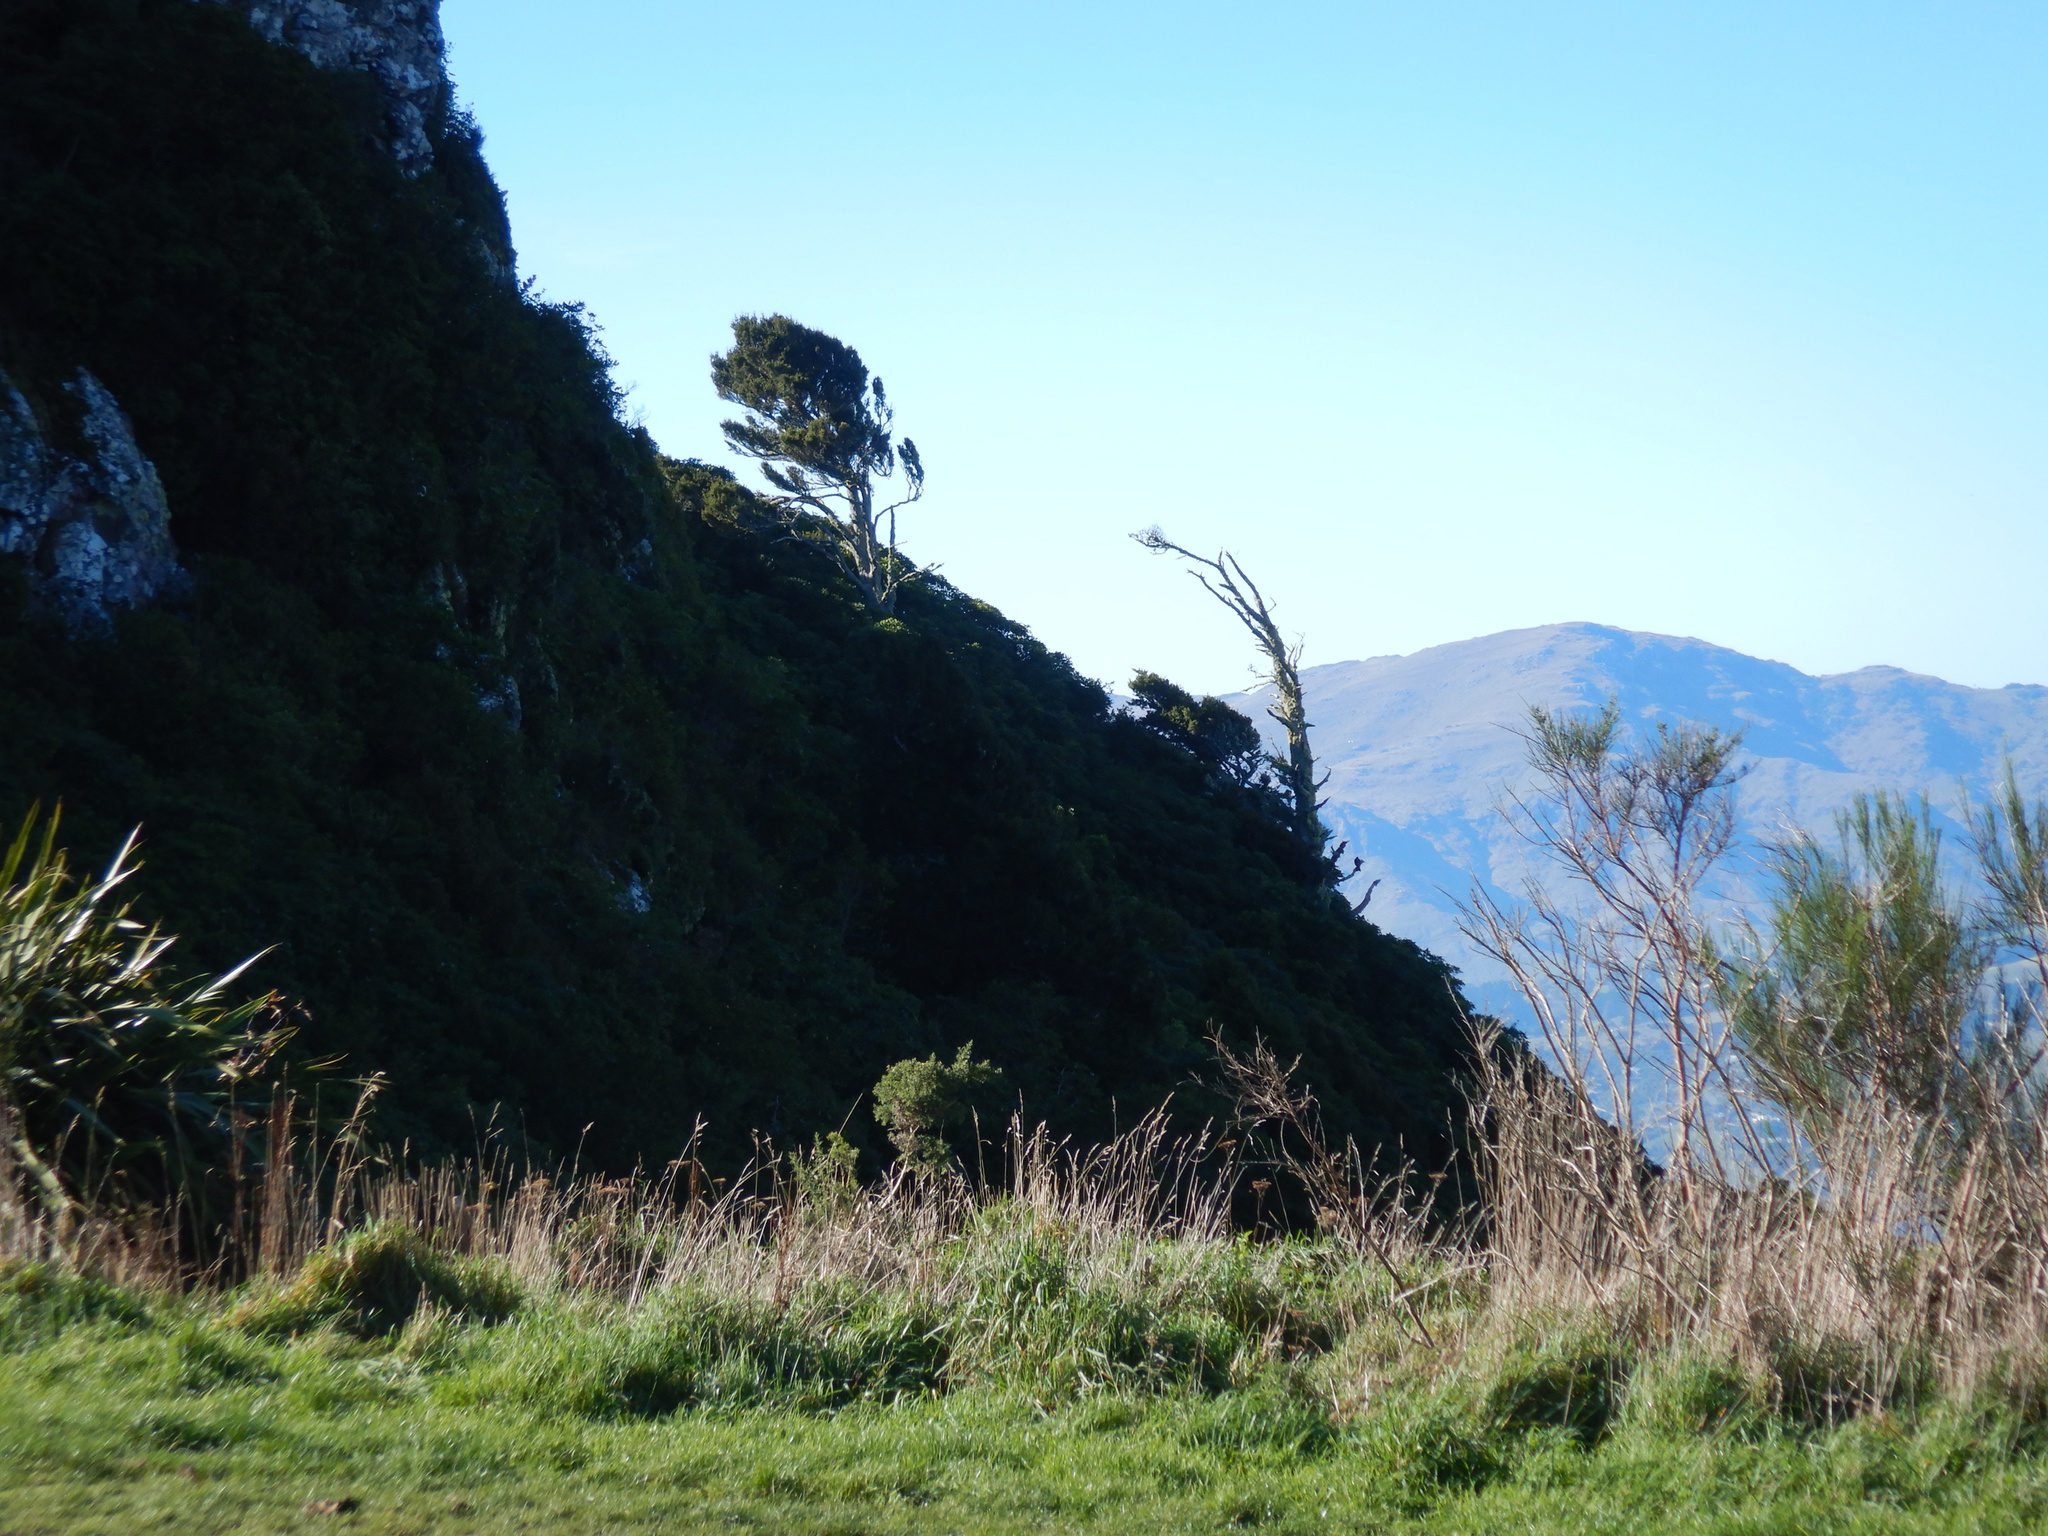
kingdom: Plantae
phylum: Tracheophyta
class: Pinopsida
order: Pinales
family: Podocarpaceae
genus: Podocarpus
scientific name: Podocarpus totara
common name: Totara
